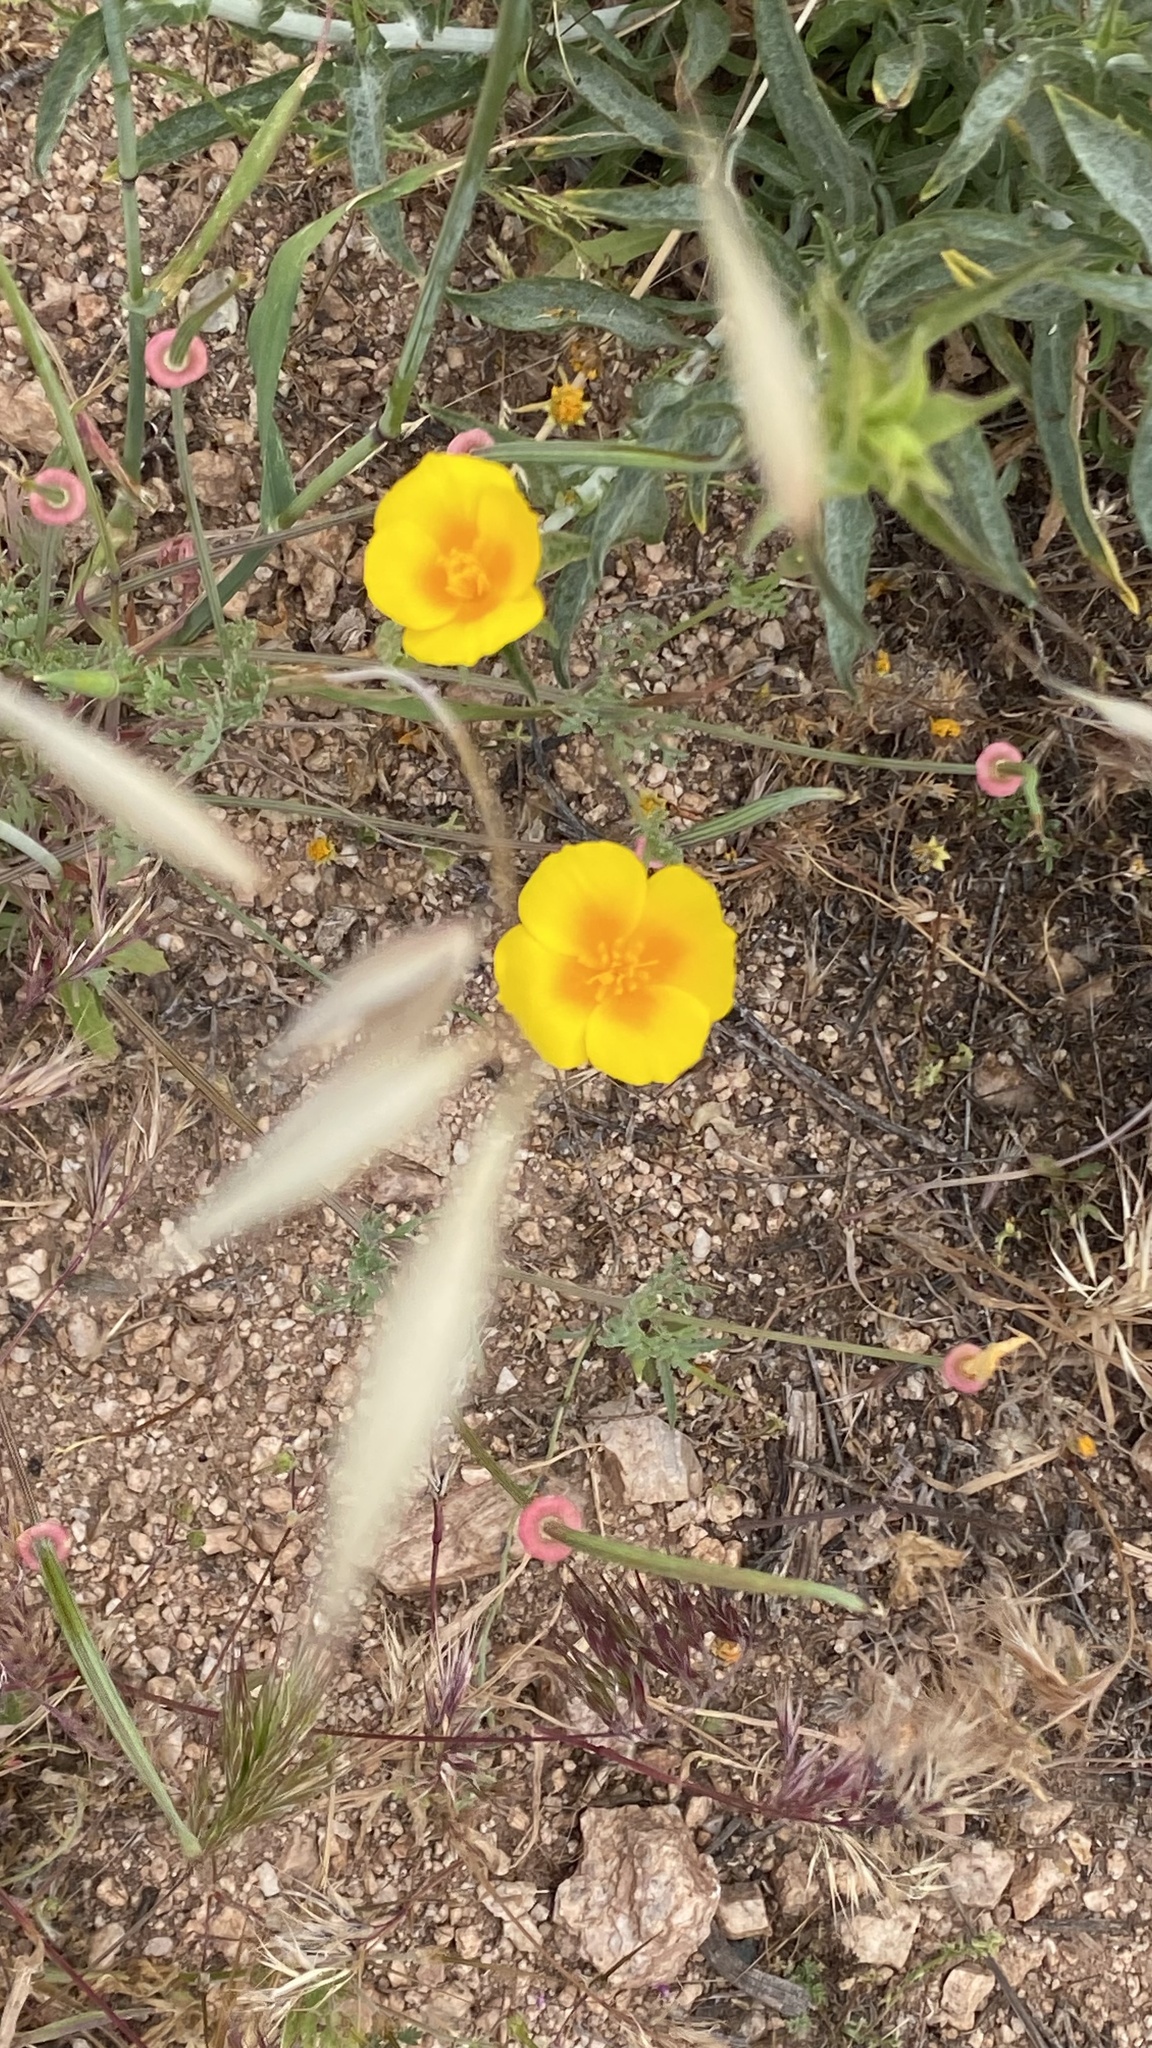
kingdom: Plantae
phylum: Tracheophyta
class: Magnoliopsida
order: Ranunculales
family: Papaveraceae
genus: Eschscholzia
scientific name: Eschscholzia californica
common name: California poppy
